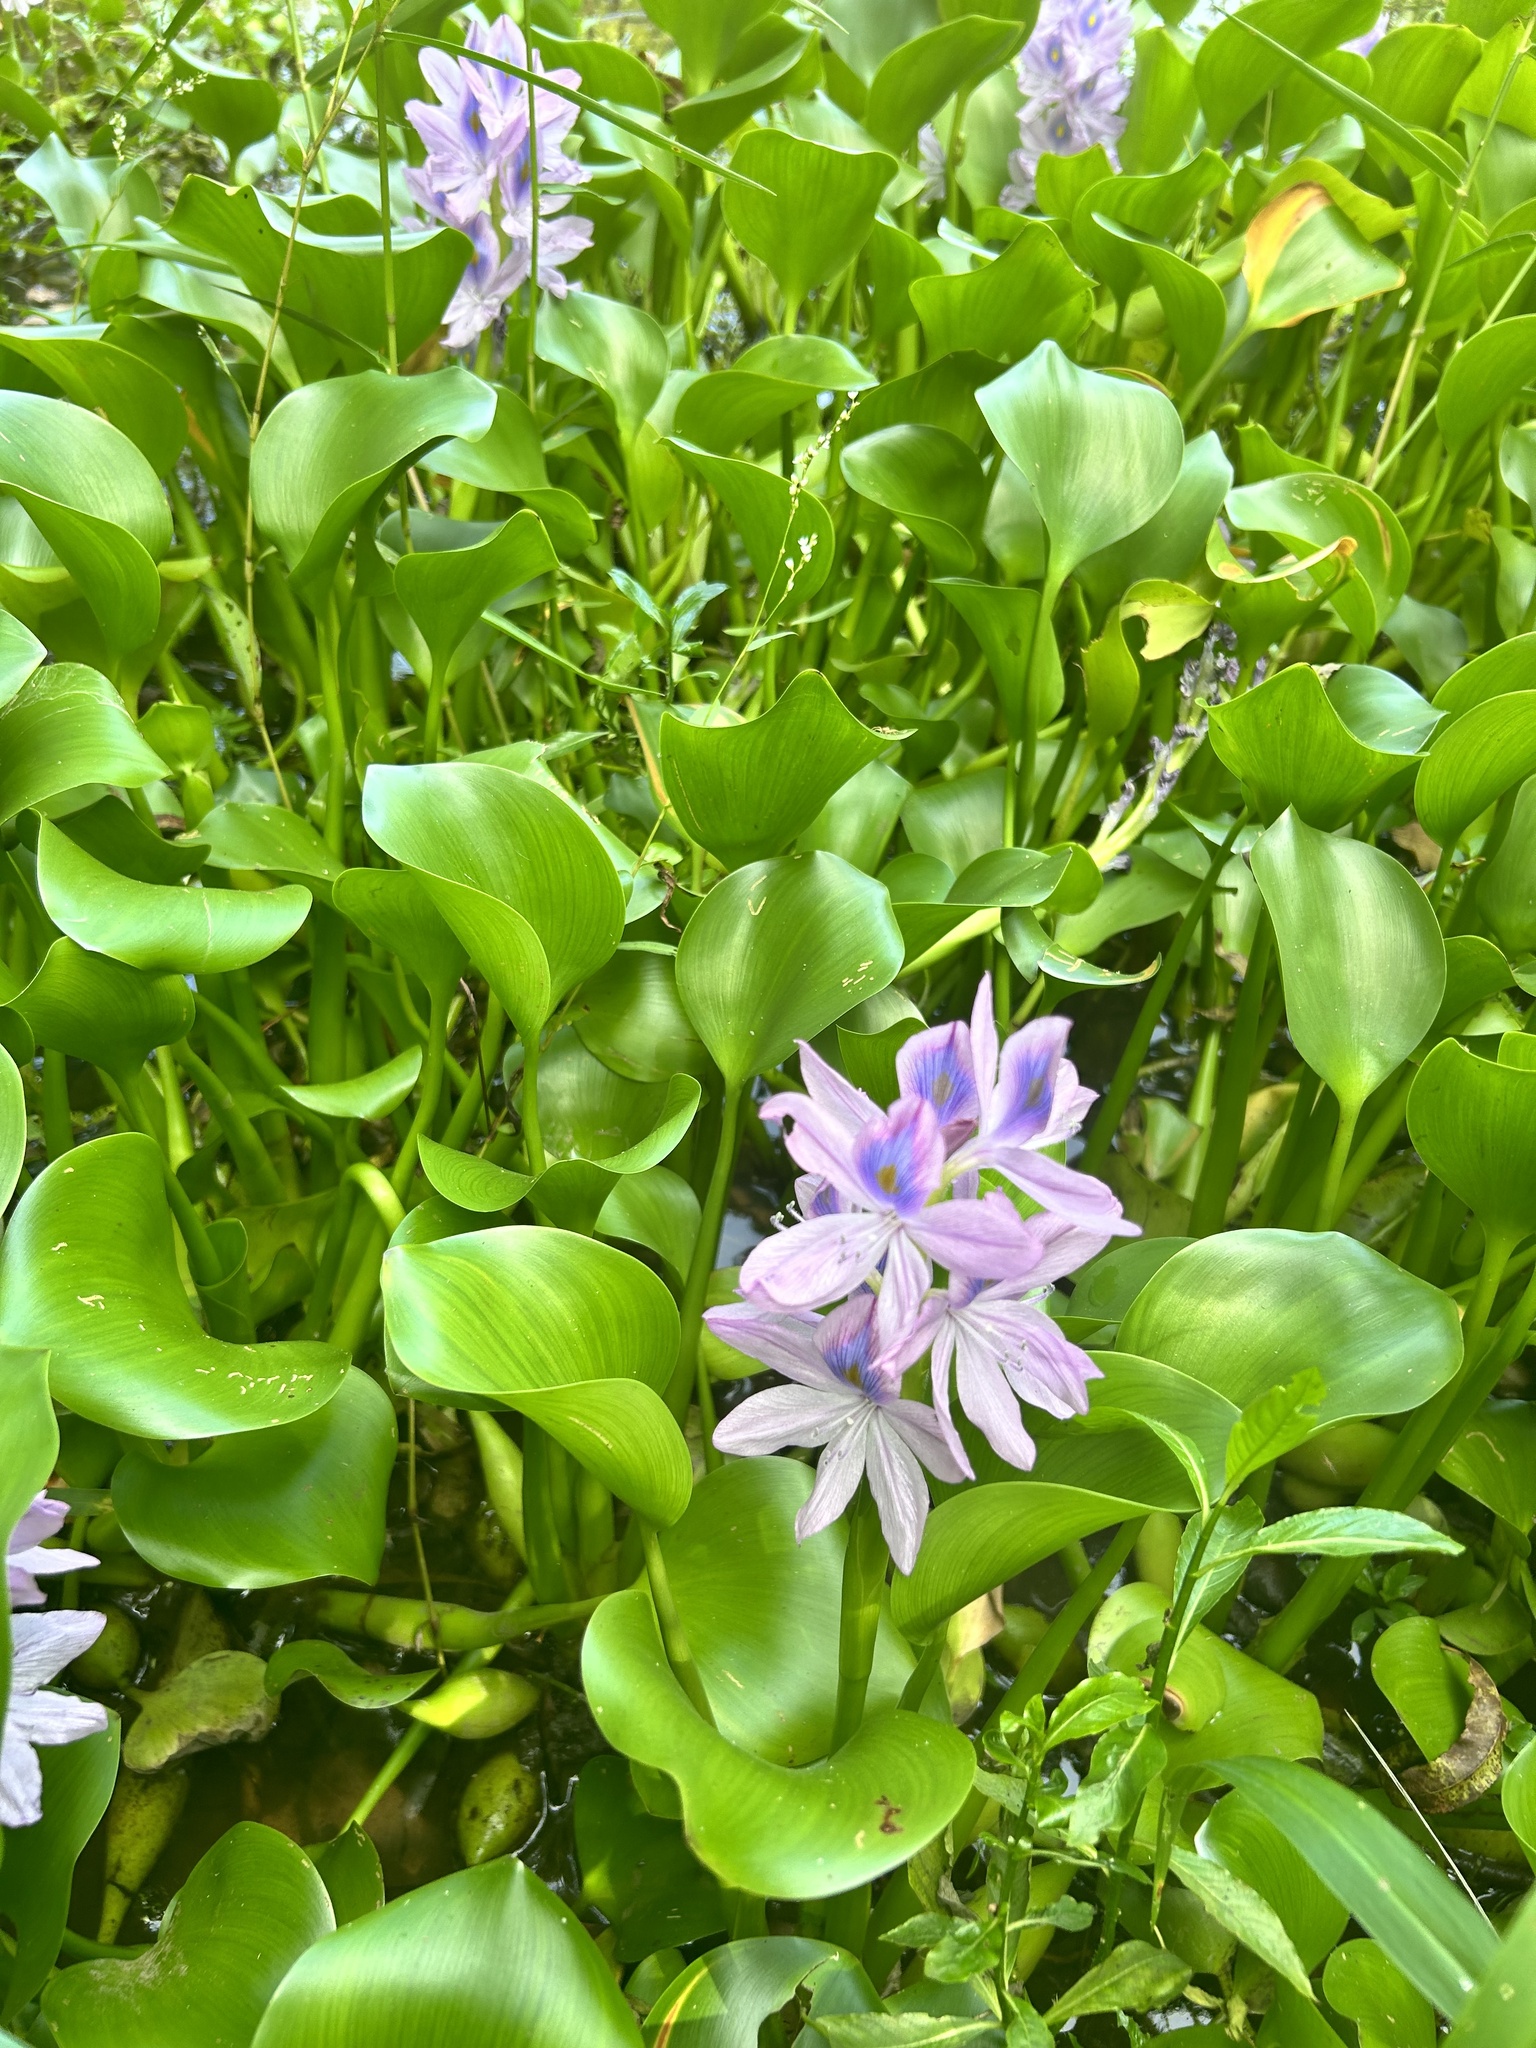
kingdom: Plantae
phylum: Tracheophyta
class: Liliopsida
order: Commelinales
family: Pontederiaceae
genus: Pontederia
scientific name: Pontederia crassipes
